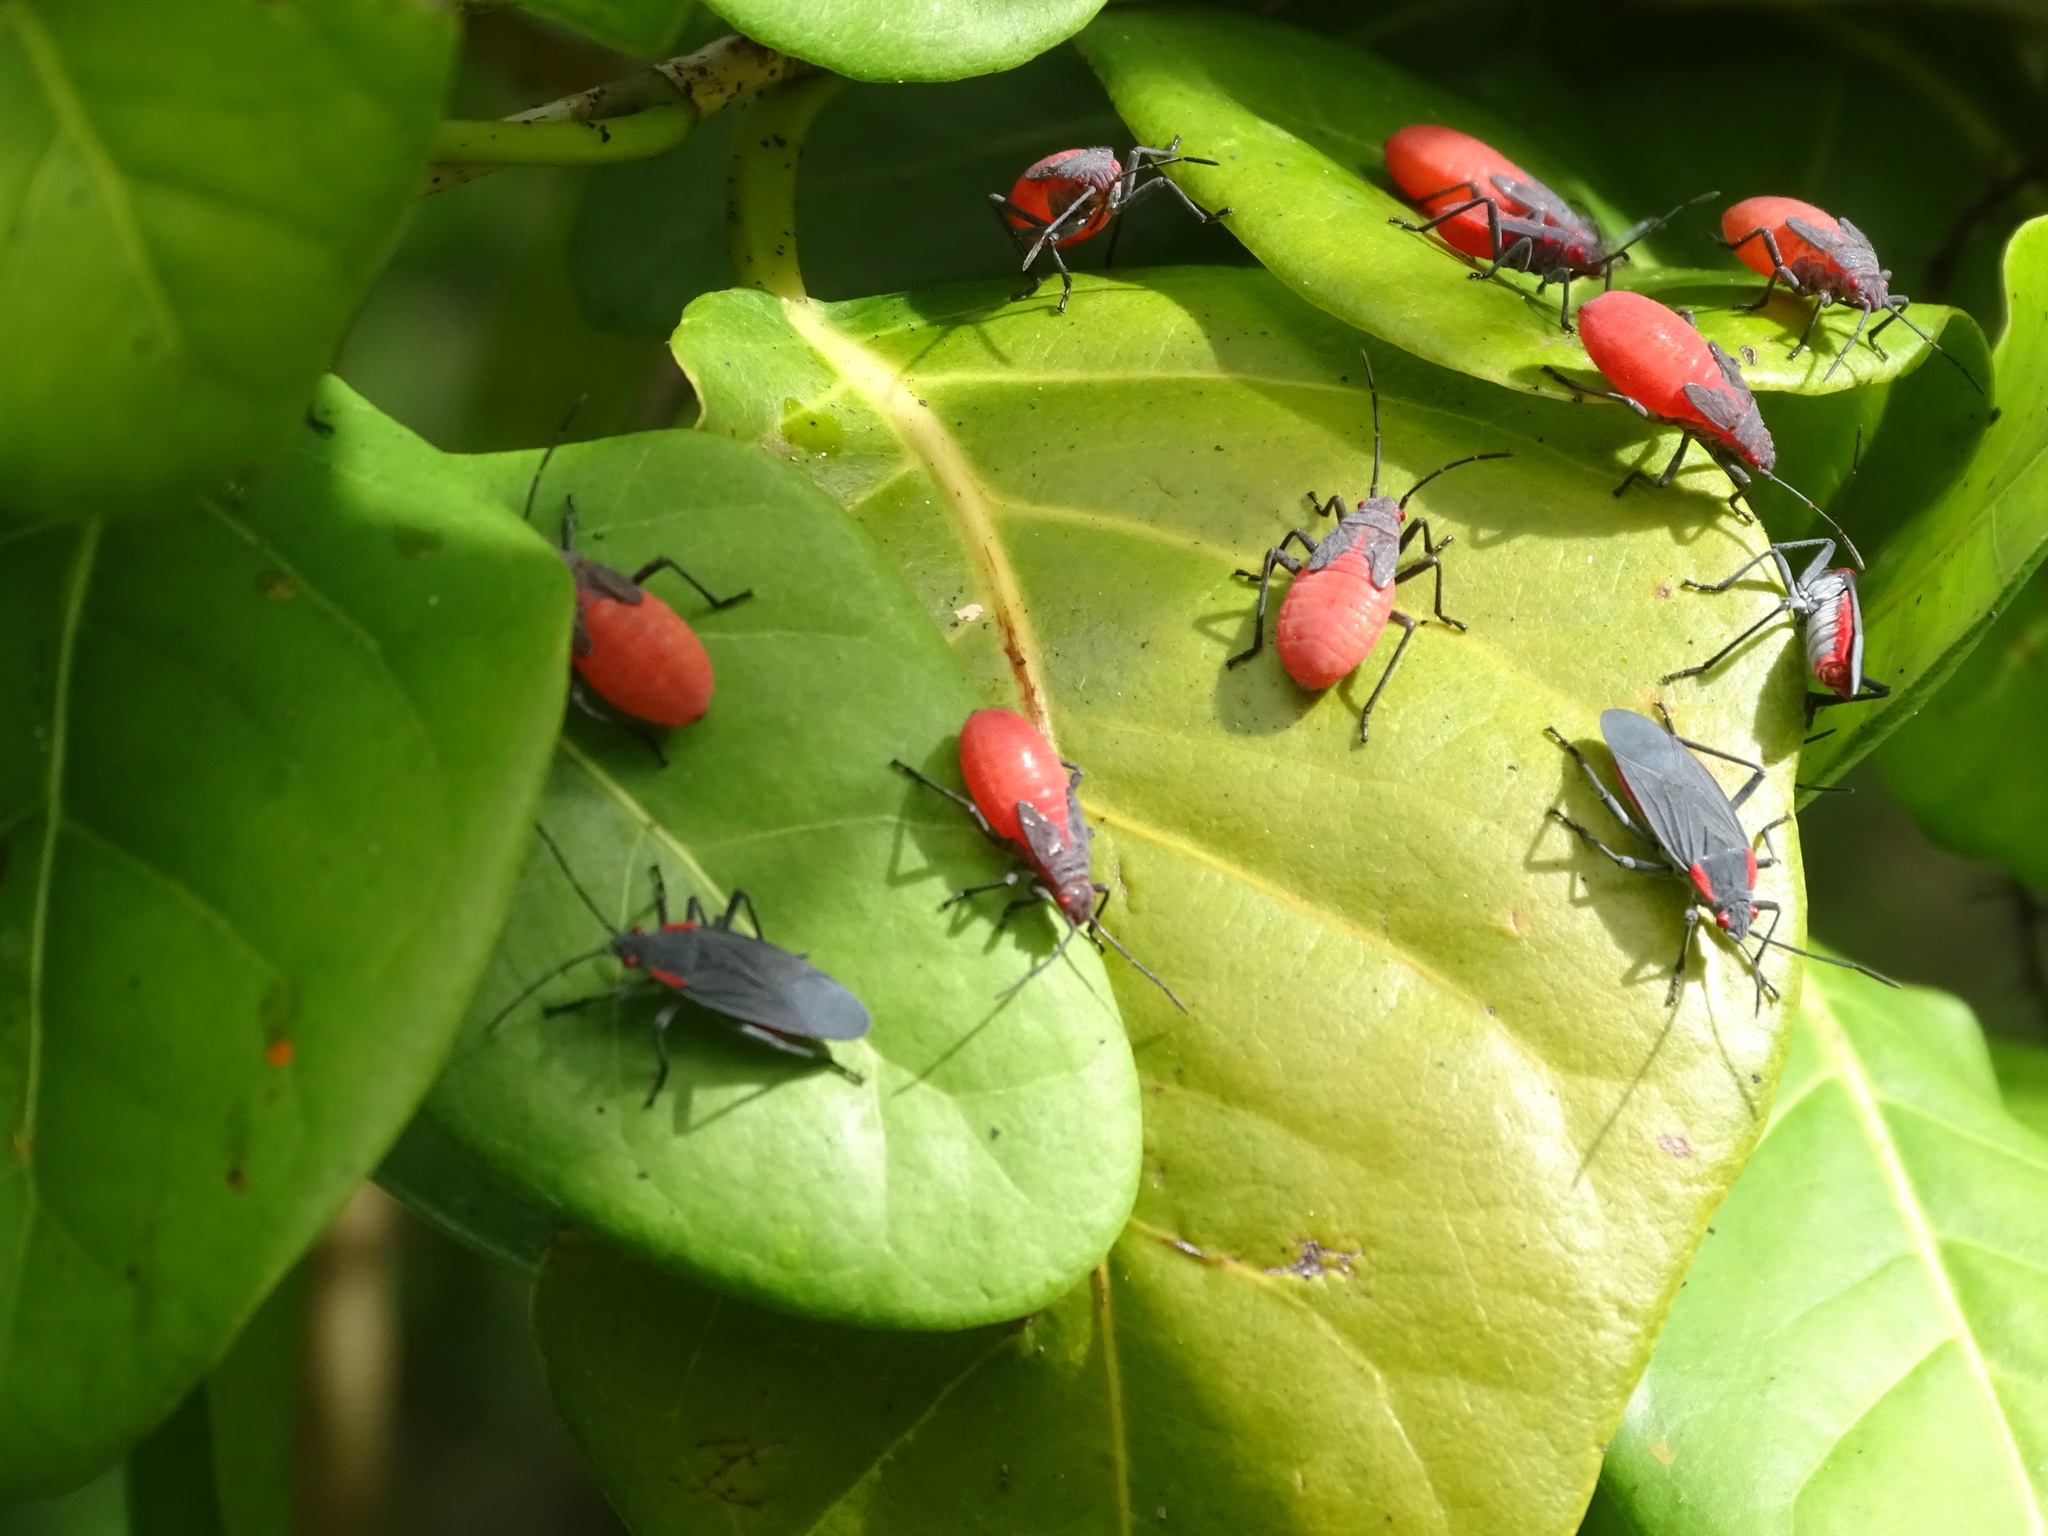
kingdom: Animalia
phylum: Arthropoda
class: Insecta
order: Hemiptera
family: Rhopalidae
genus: Jadera
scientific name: Jadera haematoloma
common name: Red-shouldered bug
